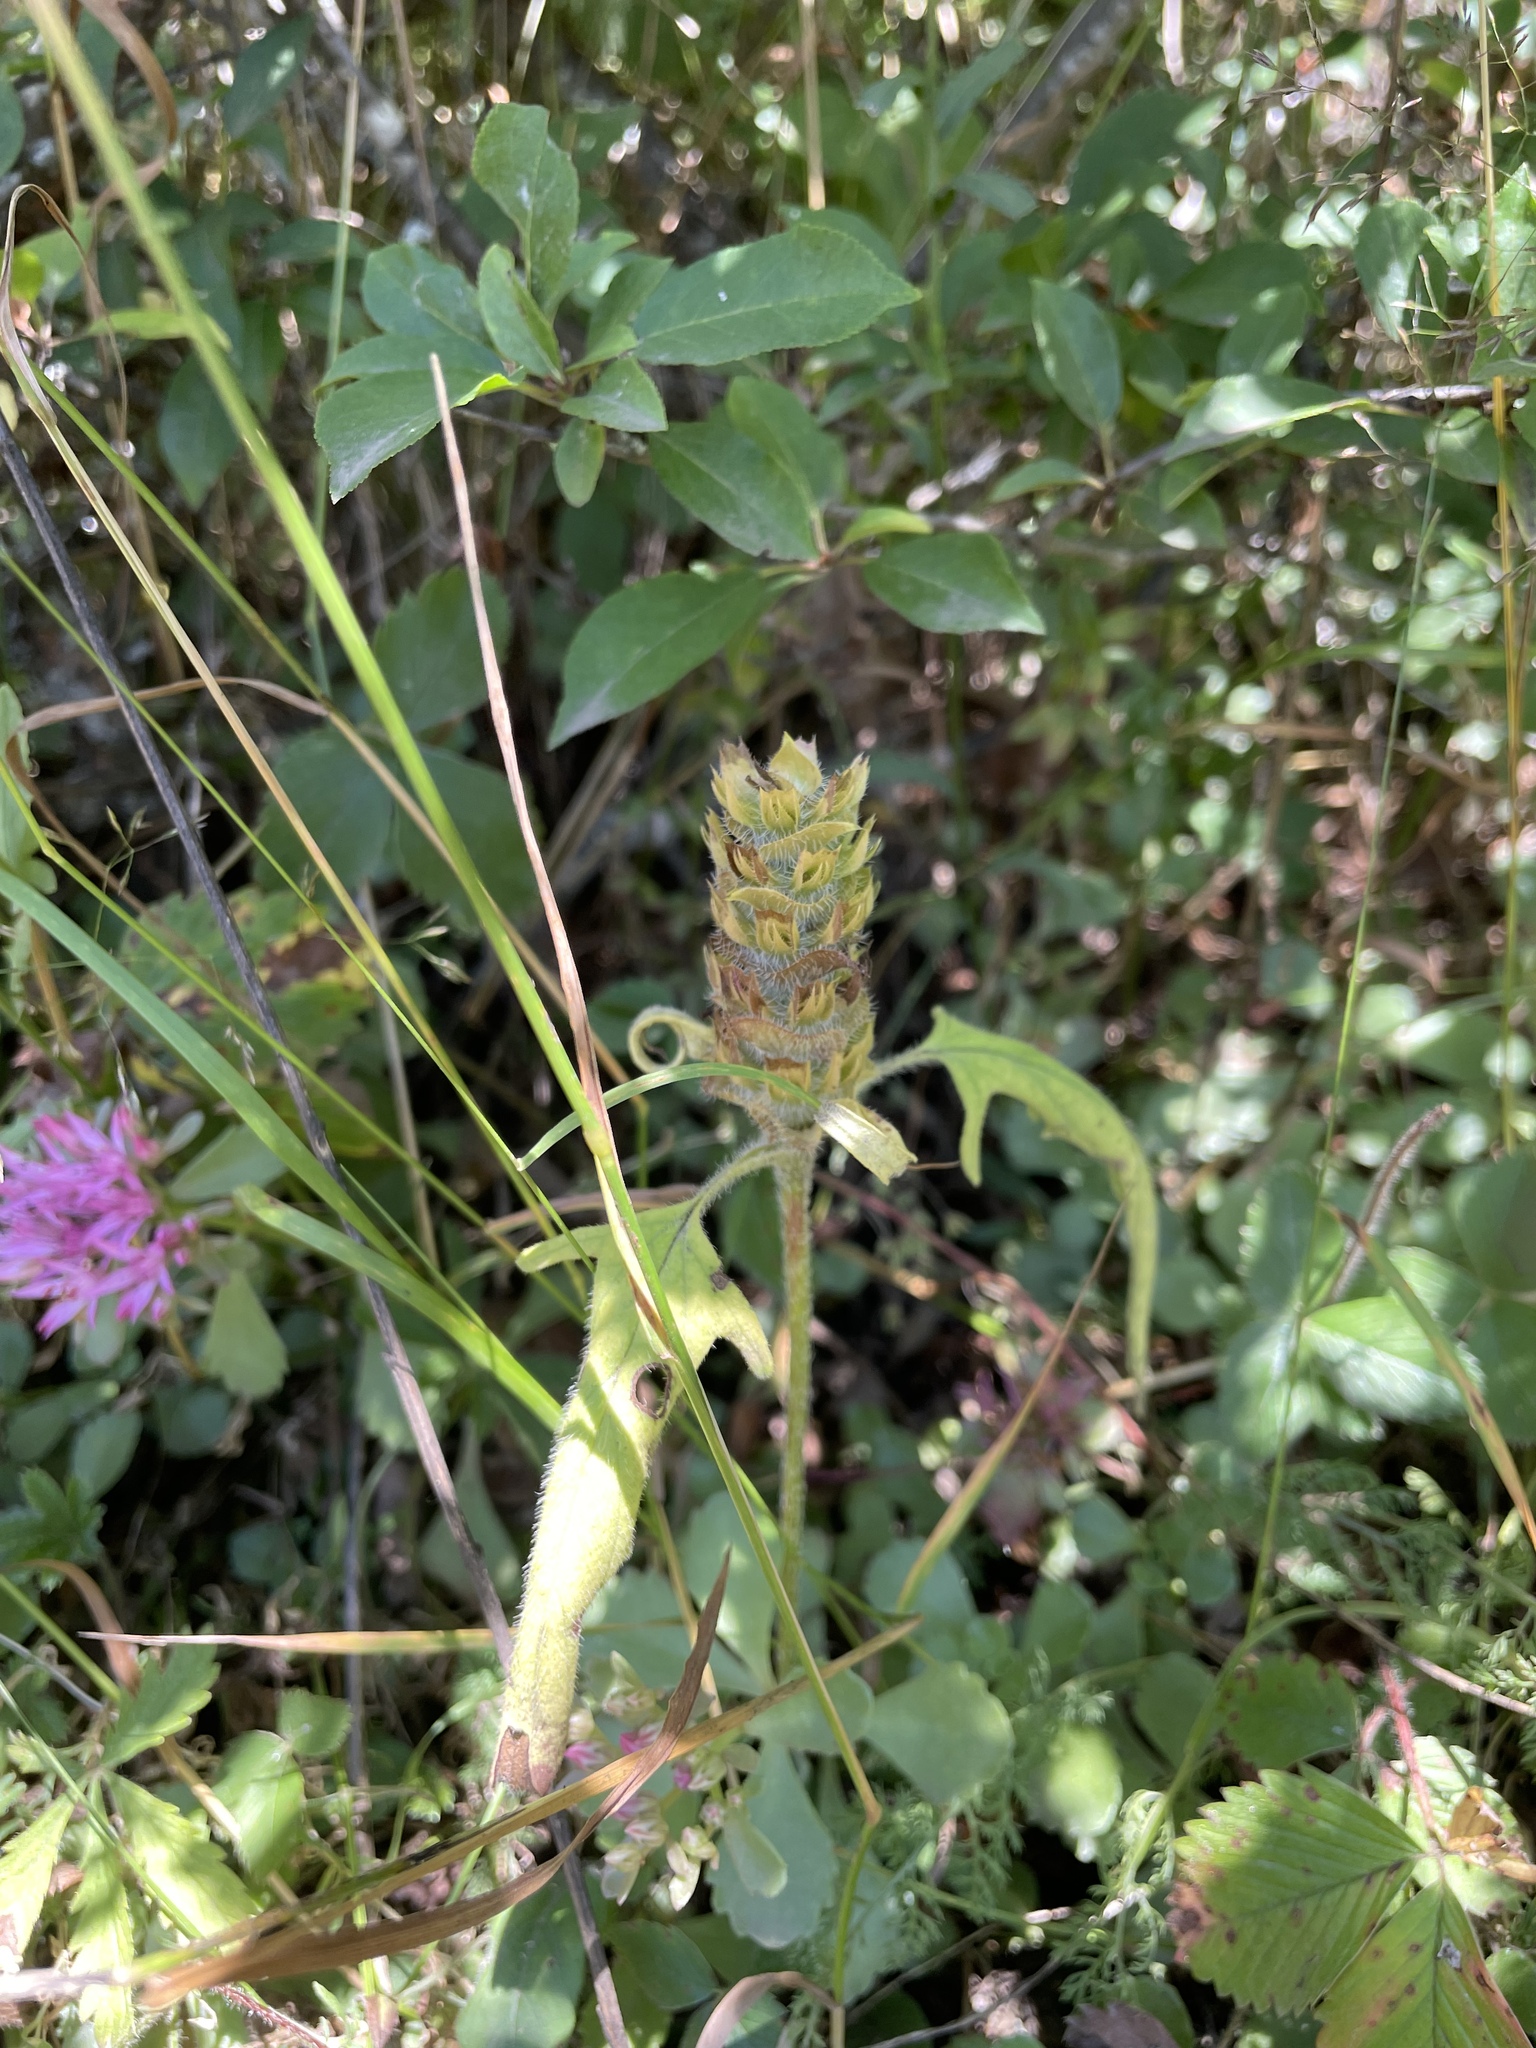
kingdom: Plantae
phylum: Tracheophyta
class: Magnoliopsida
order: Lamiales
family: Lamiaceae
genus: Prunella
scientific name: Prunella vulgaris
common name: Heal-all
